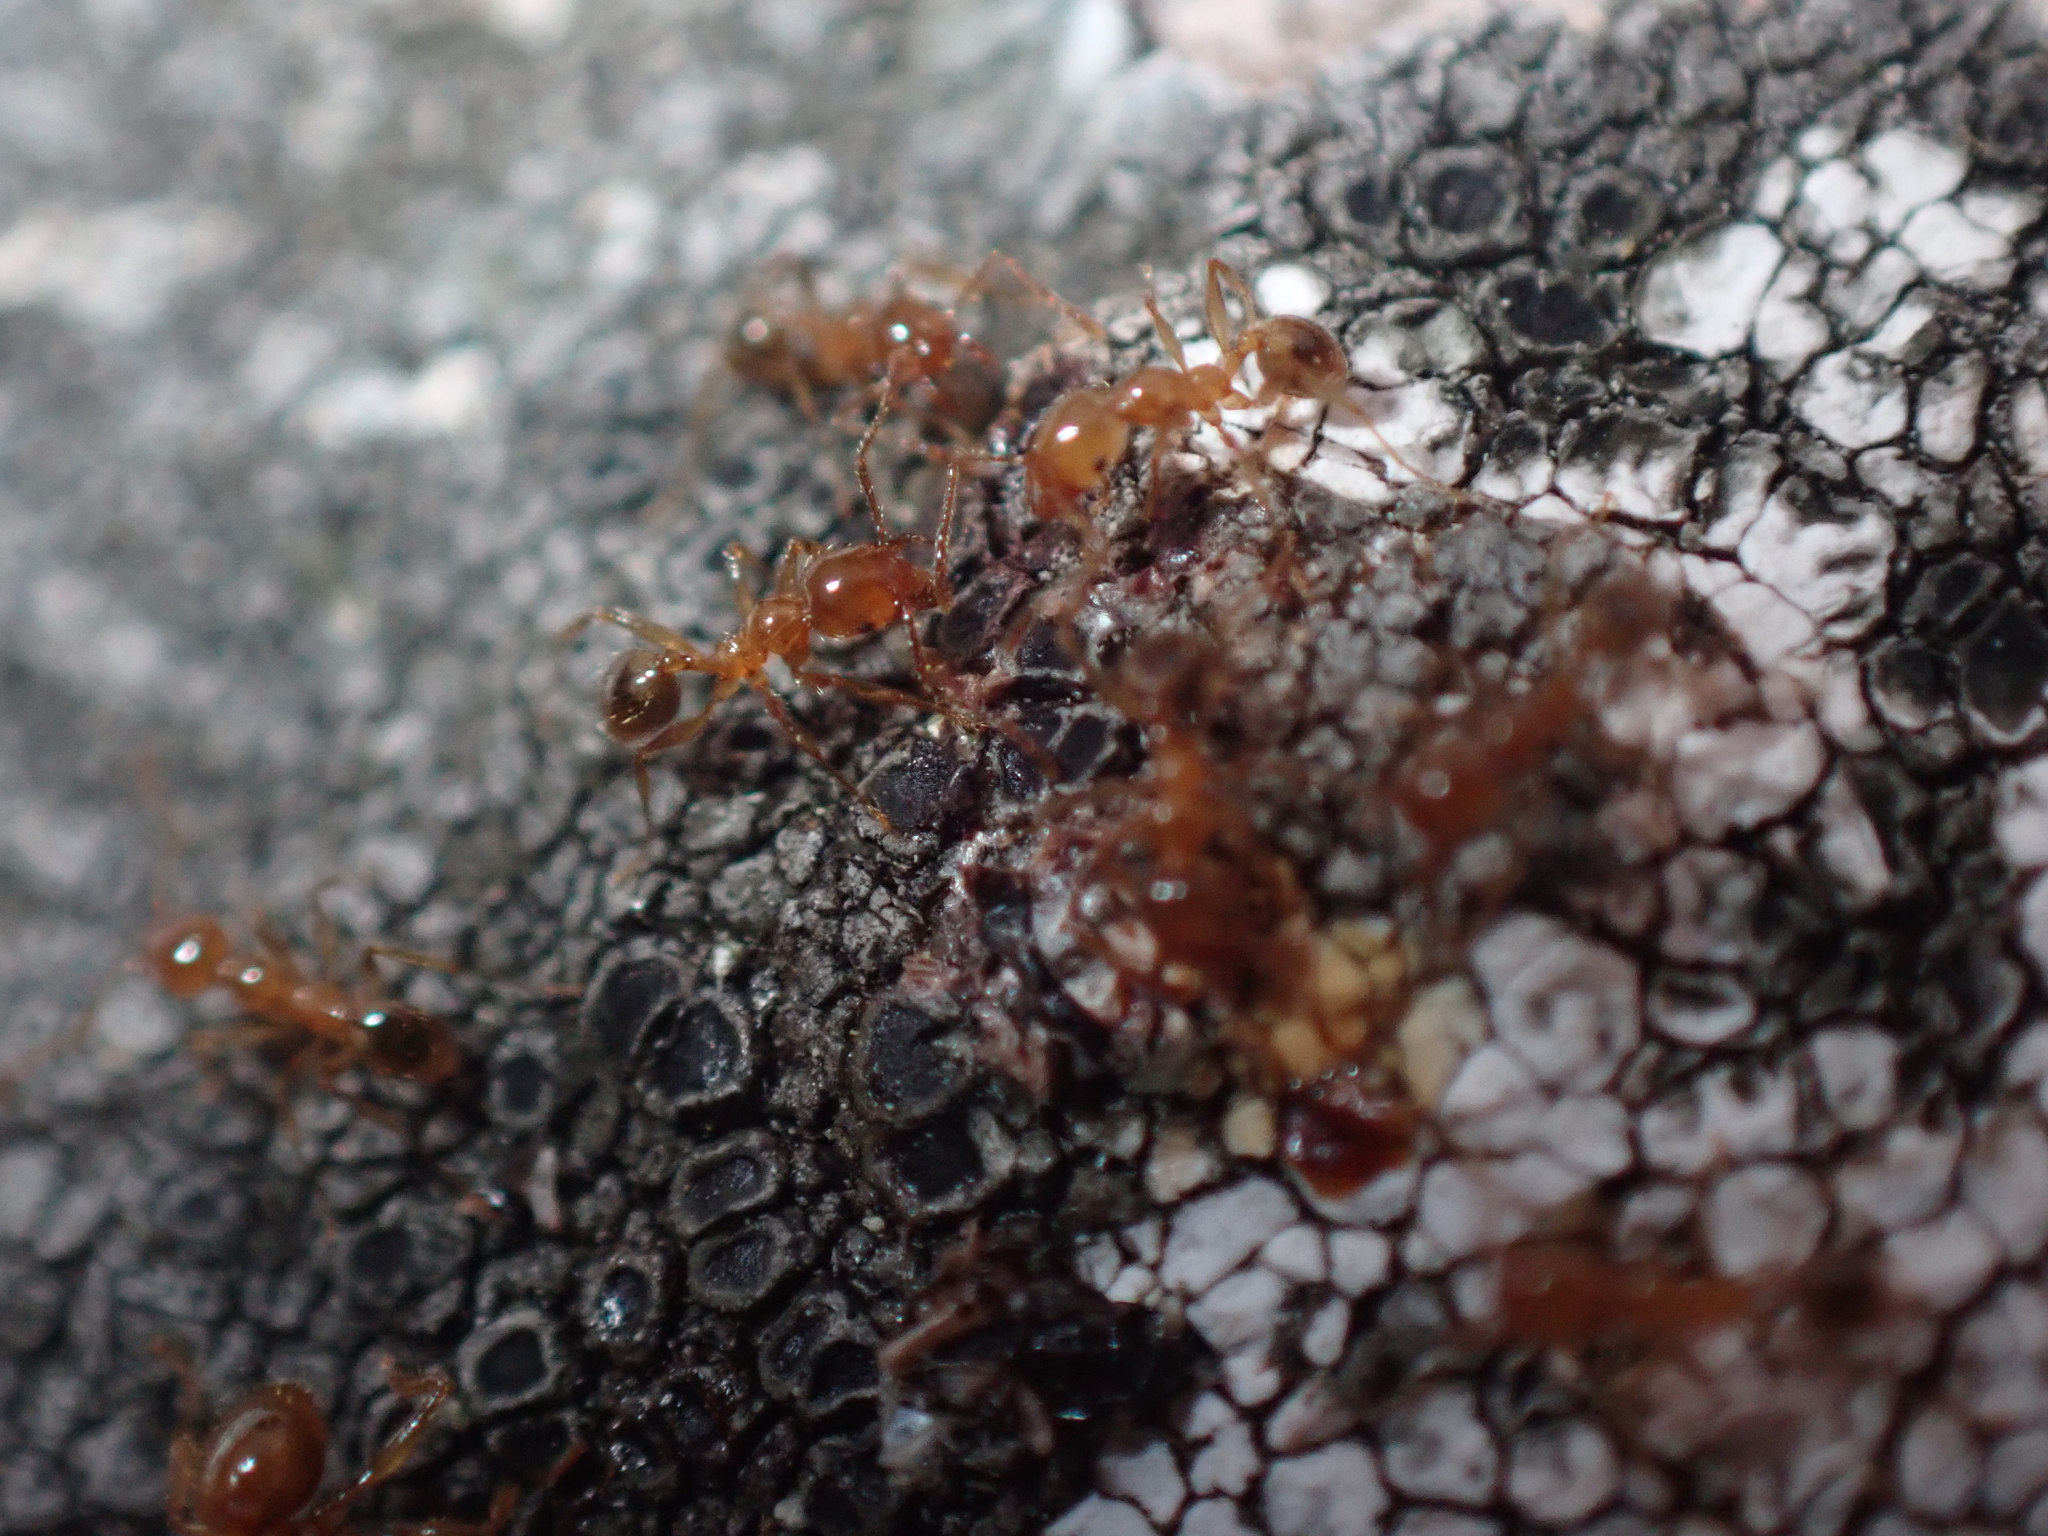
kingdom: Animalia
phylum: Arthropoda
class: Insecta
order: Hymenoptera
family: Formicidae
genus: Pheidole
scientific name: Pheidole pallidula
